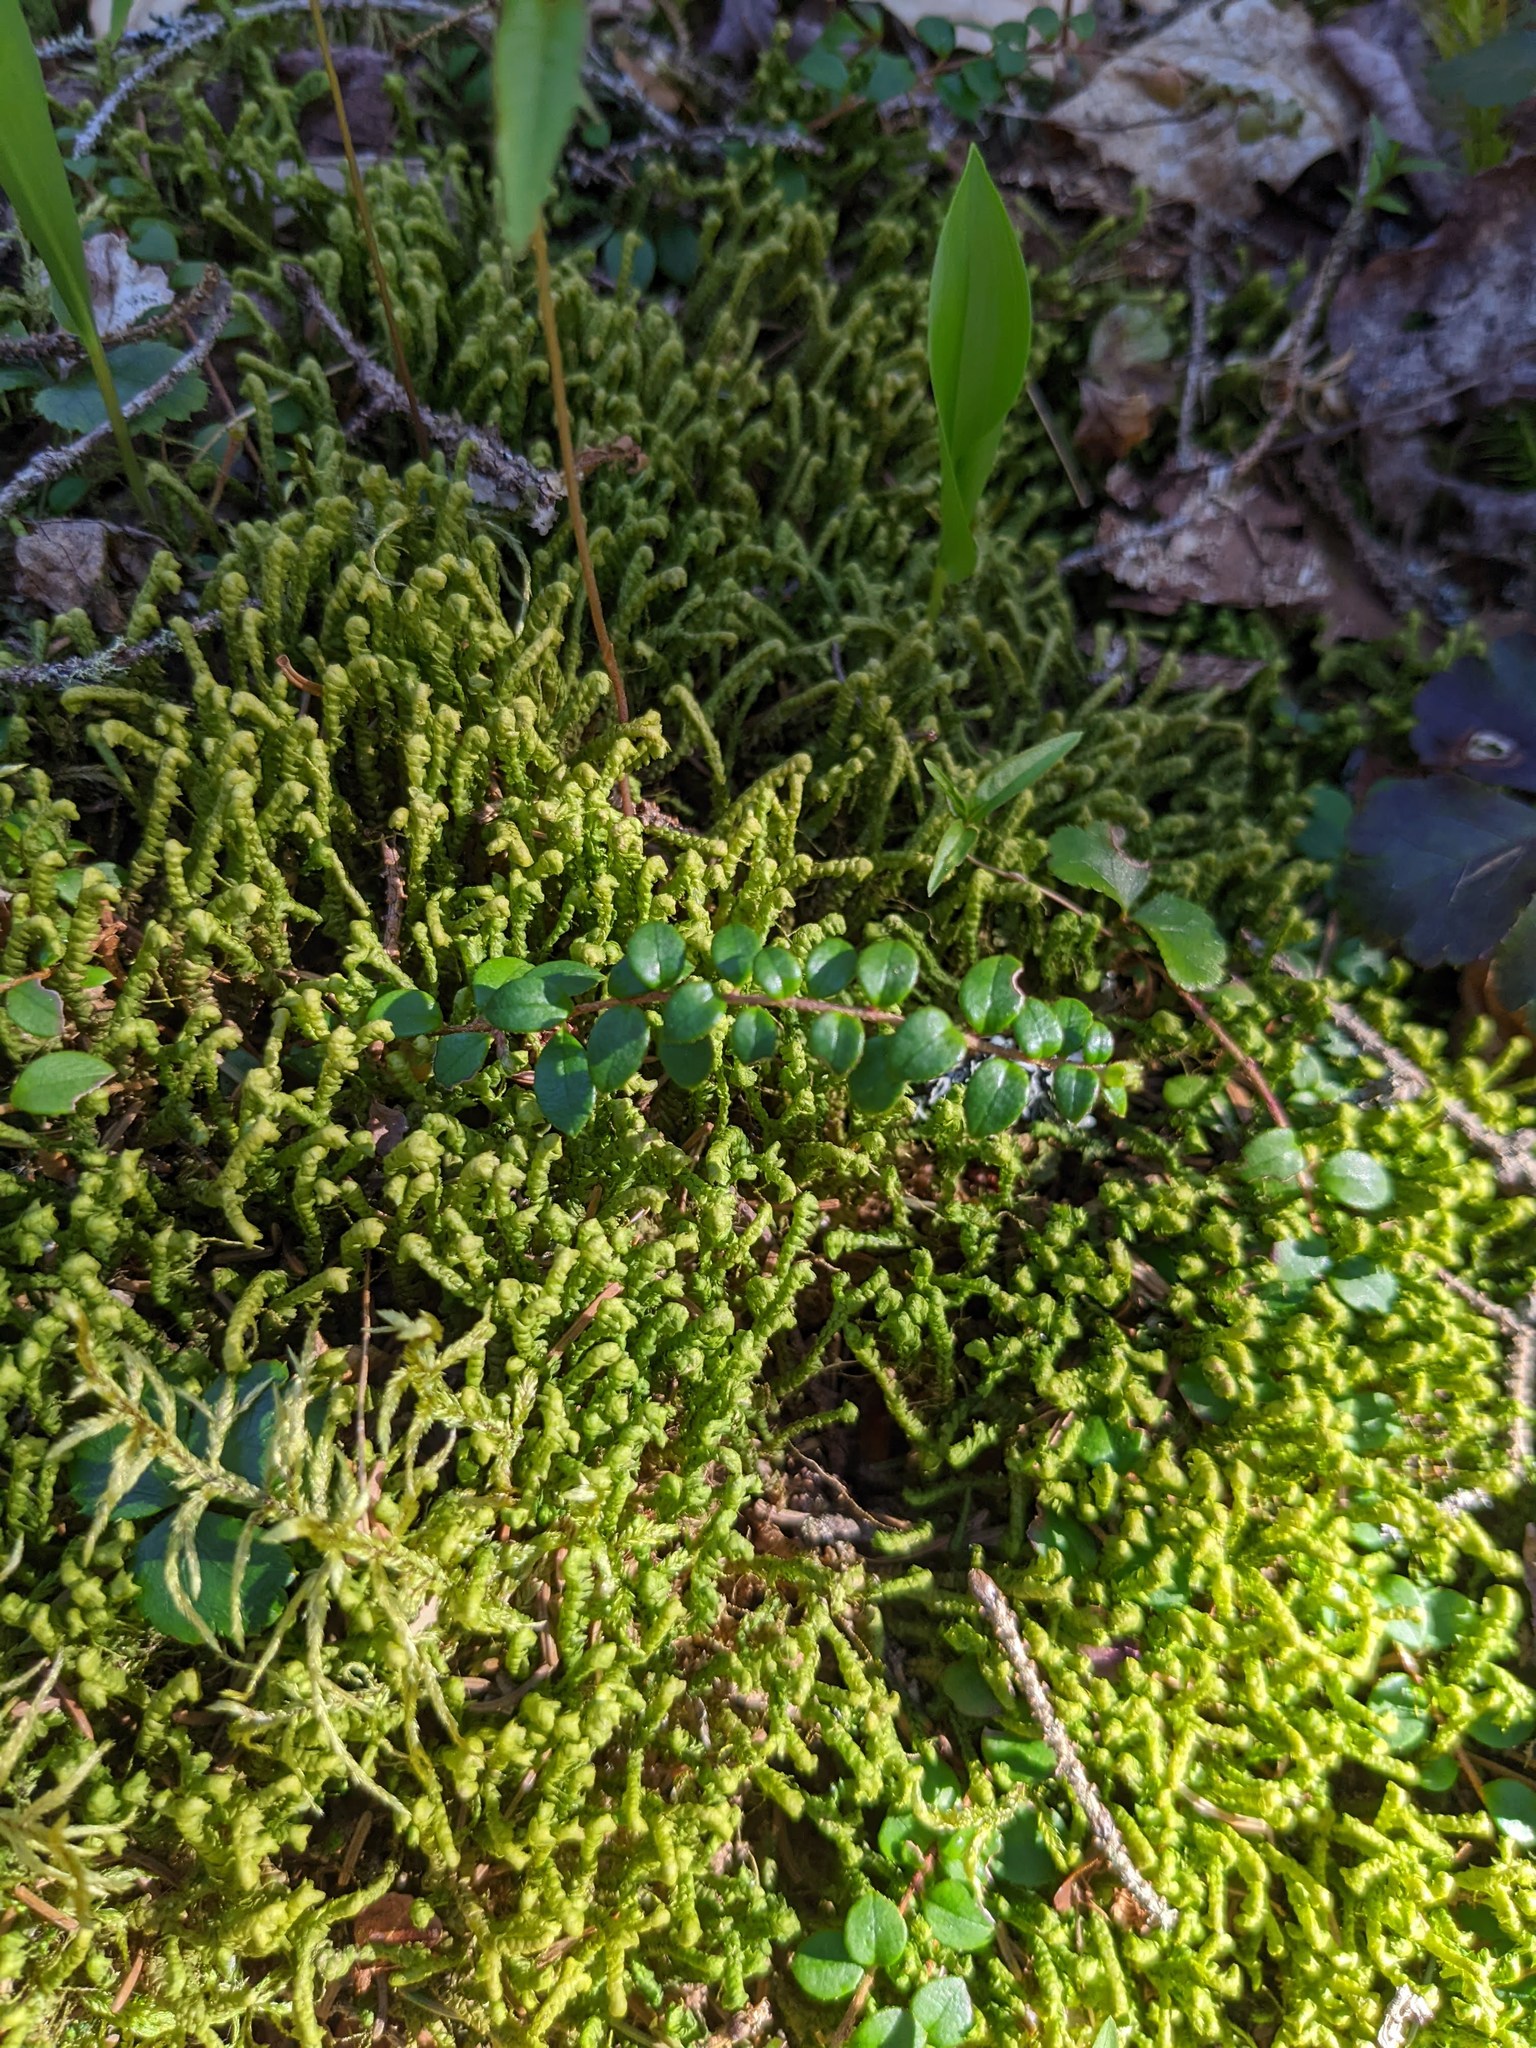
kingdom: Plantae
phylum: Tracheophyta
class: Magnoliopsida
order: Ericales
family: Ericaceae
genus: Gaultheria
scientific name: Gaultheria hispidula
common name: Cancer wintergreen
